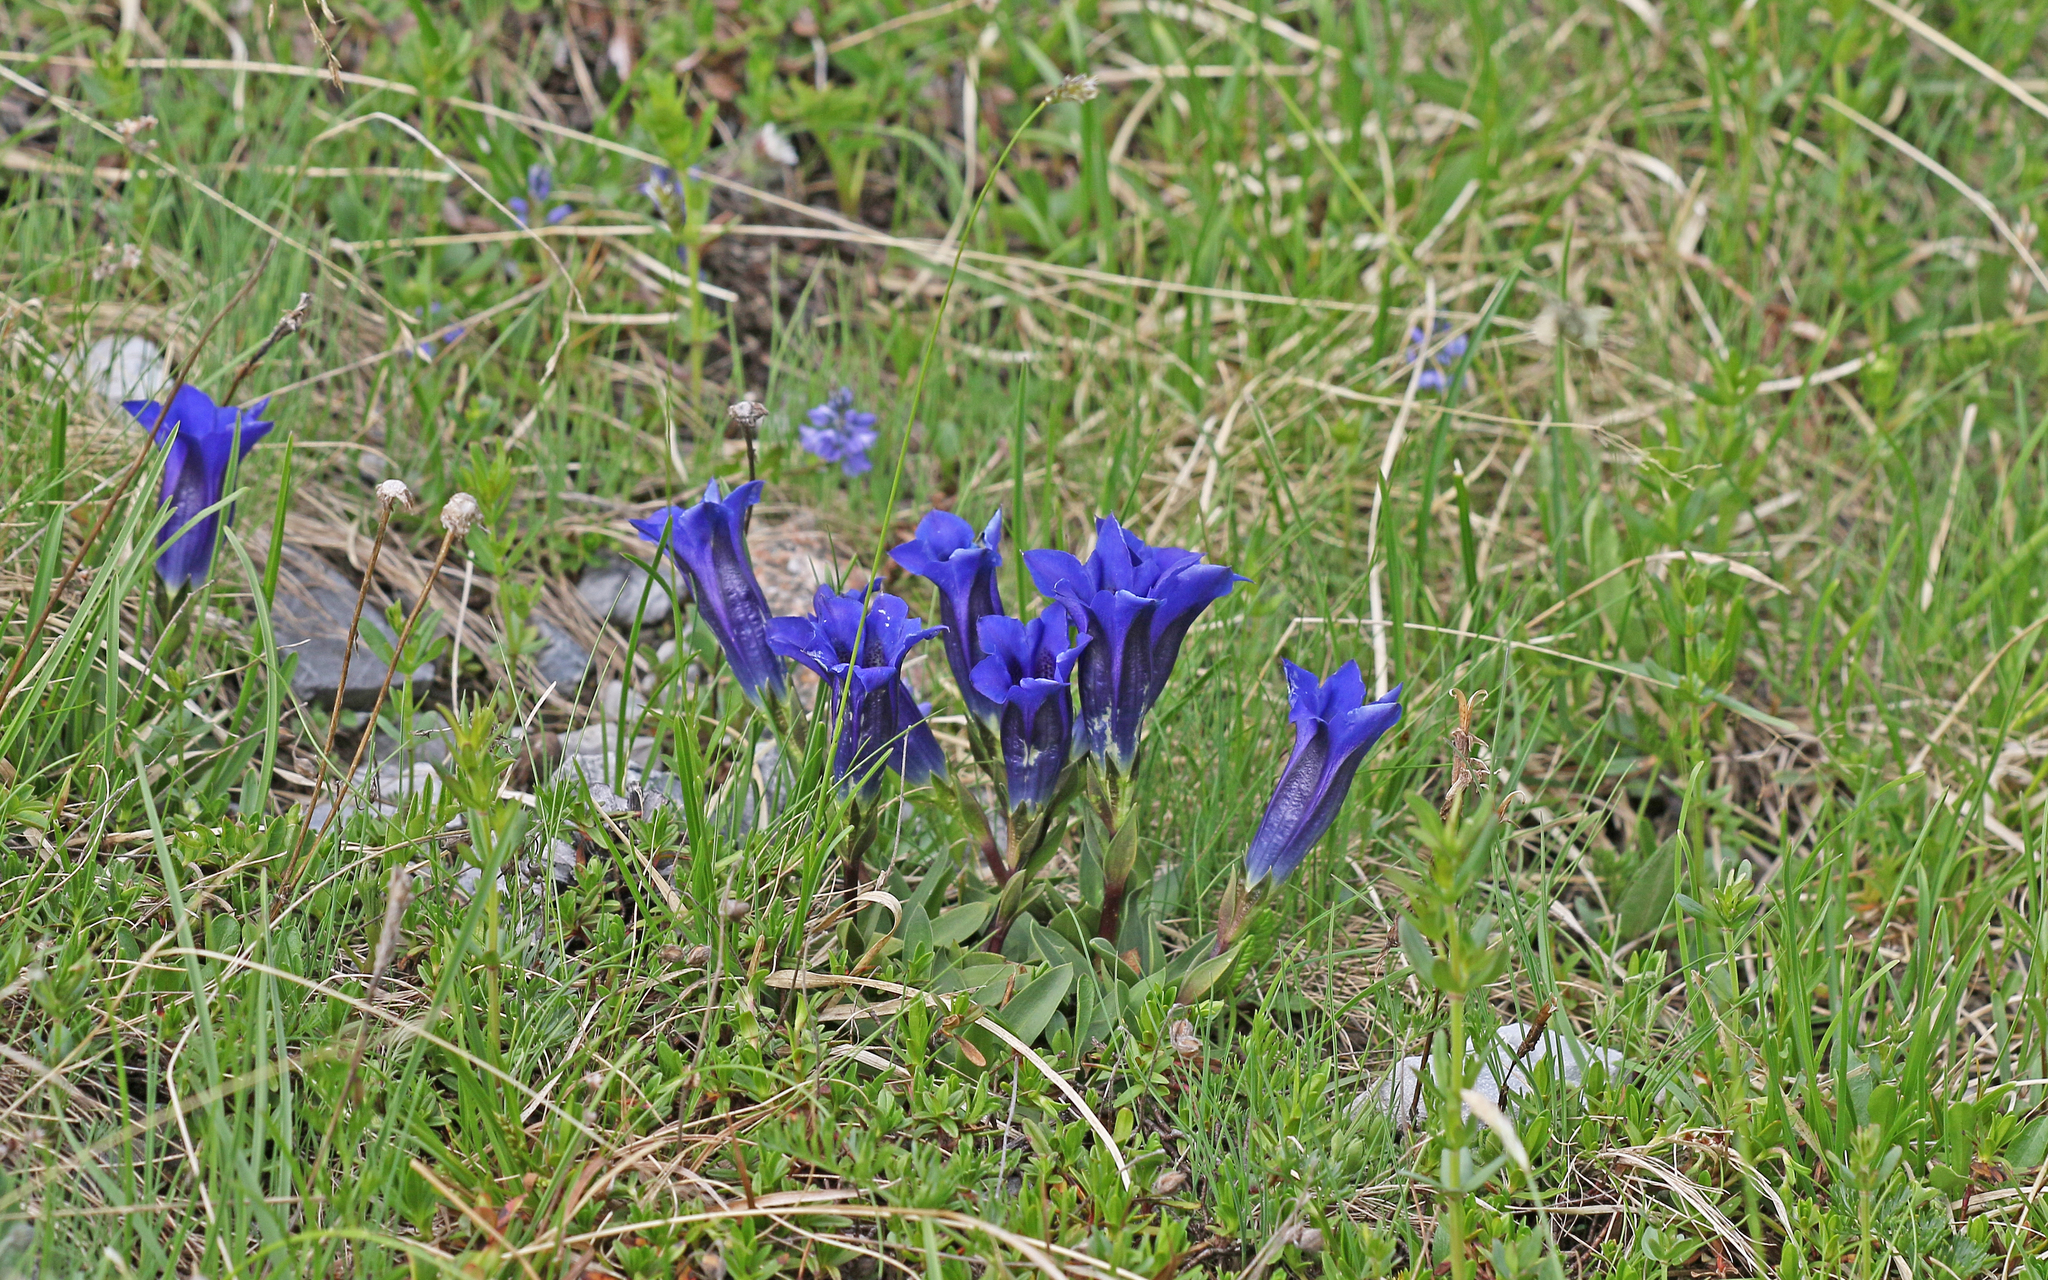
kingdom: Plantae
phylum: Tracheophyta
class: Magnoliopsida
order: Gentianales
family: Gentianaceae
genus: Gentiana
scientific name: Gentiana clusii
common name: Trumpet gentian
